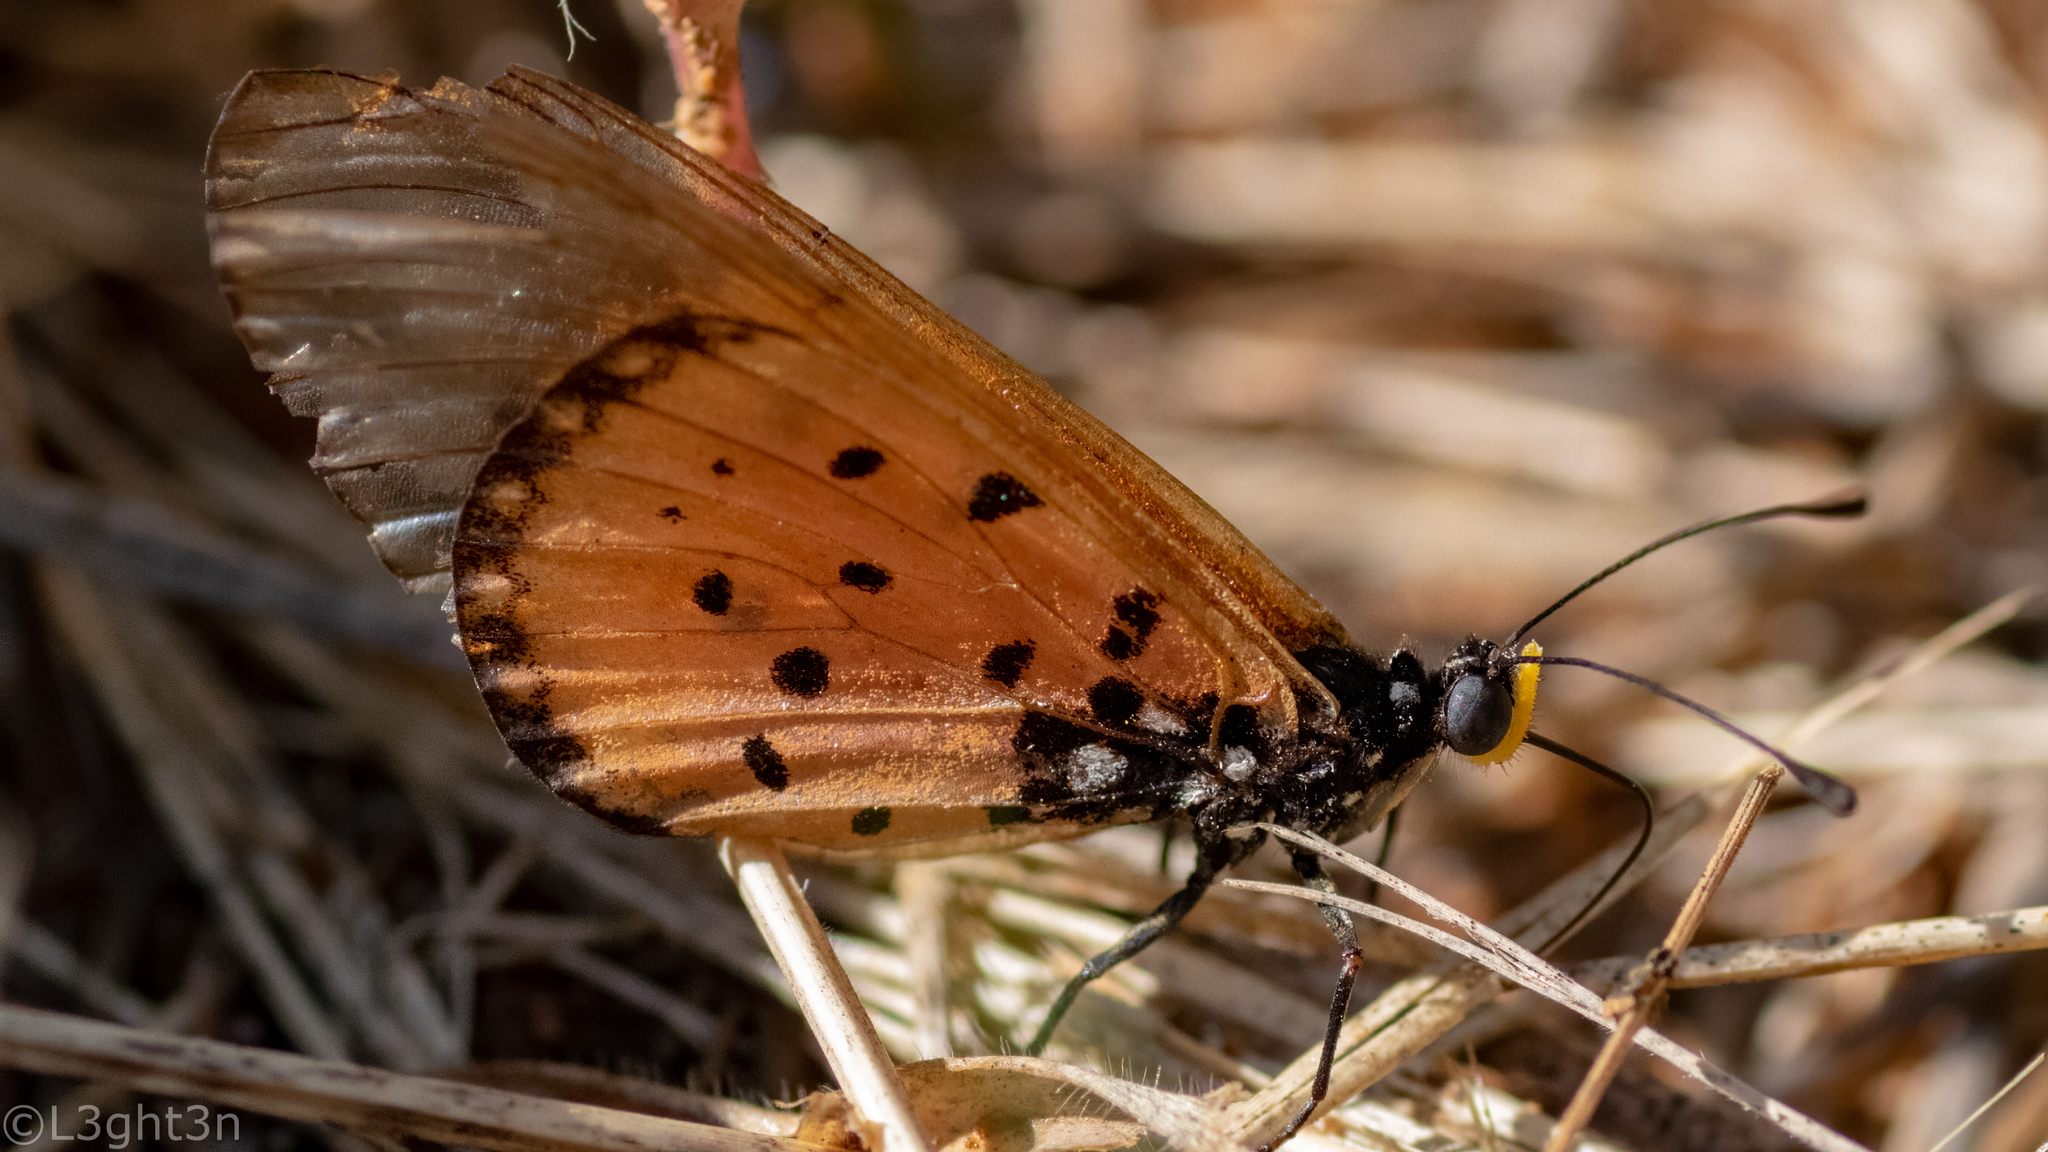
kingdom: Animalia
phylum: Arthropoda
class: Insecta
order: Lepidoptera
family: Nymphalidae
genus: Acraea
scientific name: Acraea neobule
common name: Dancing acraea
